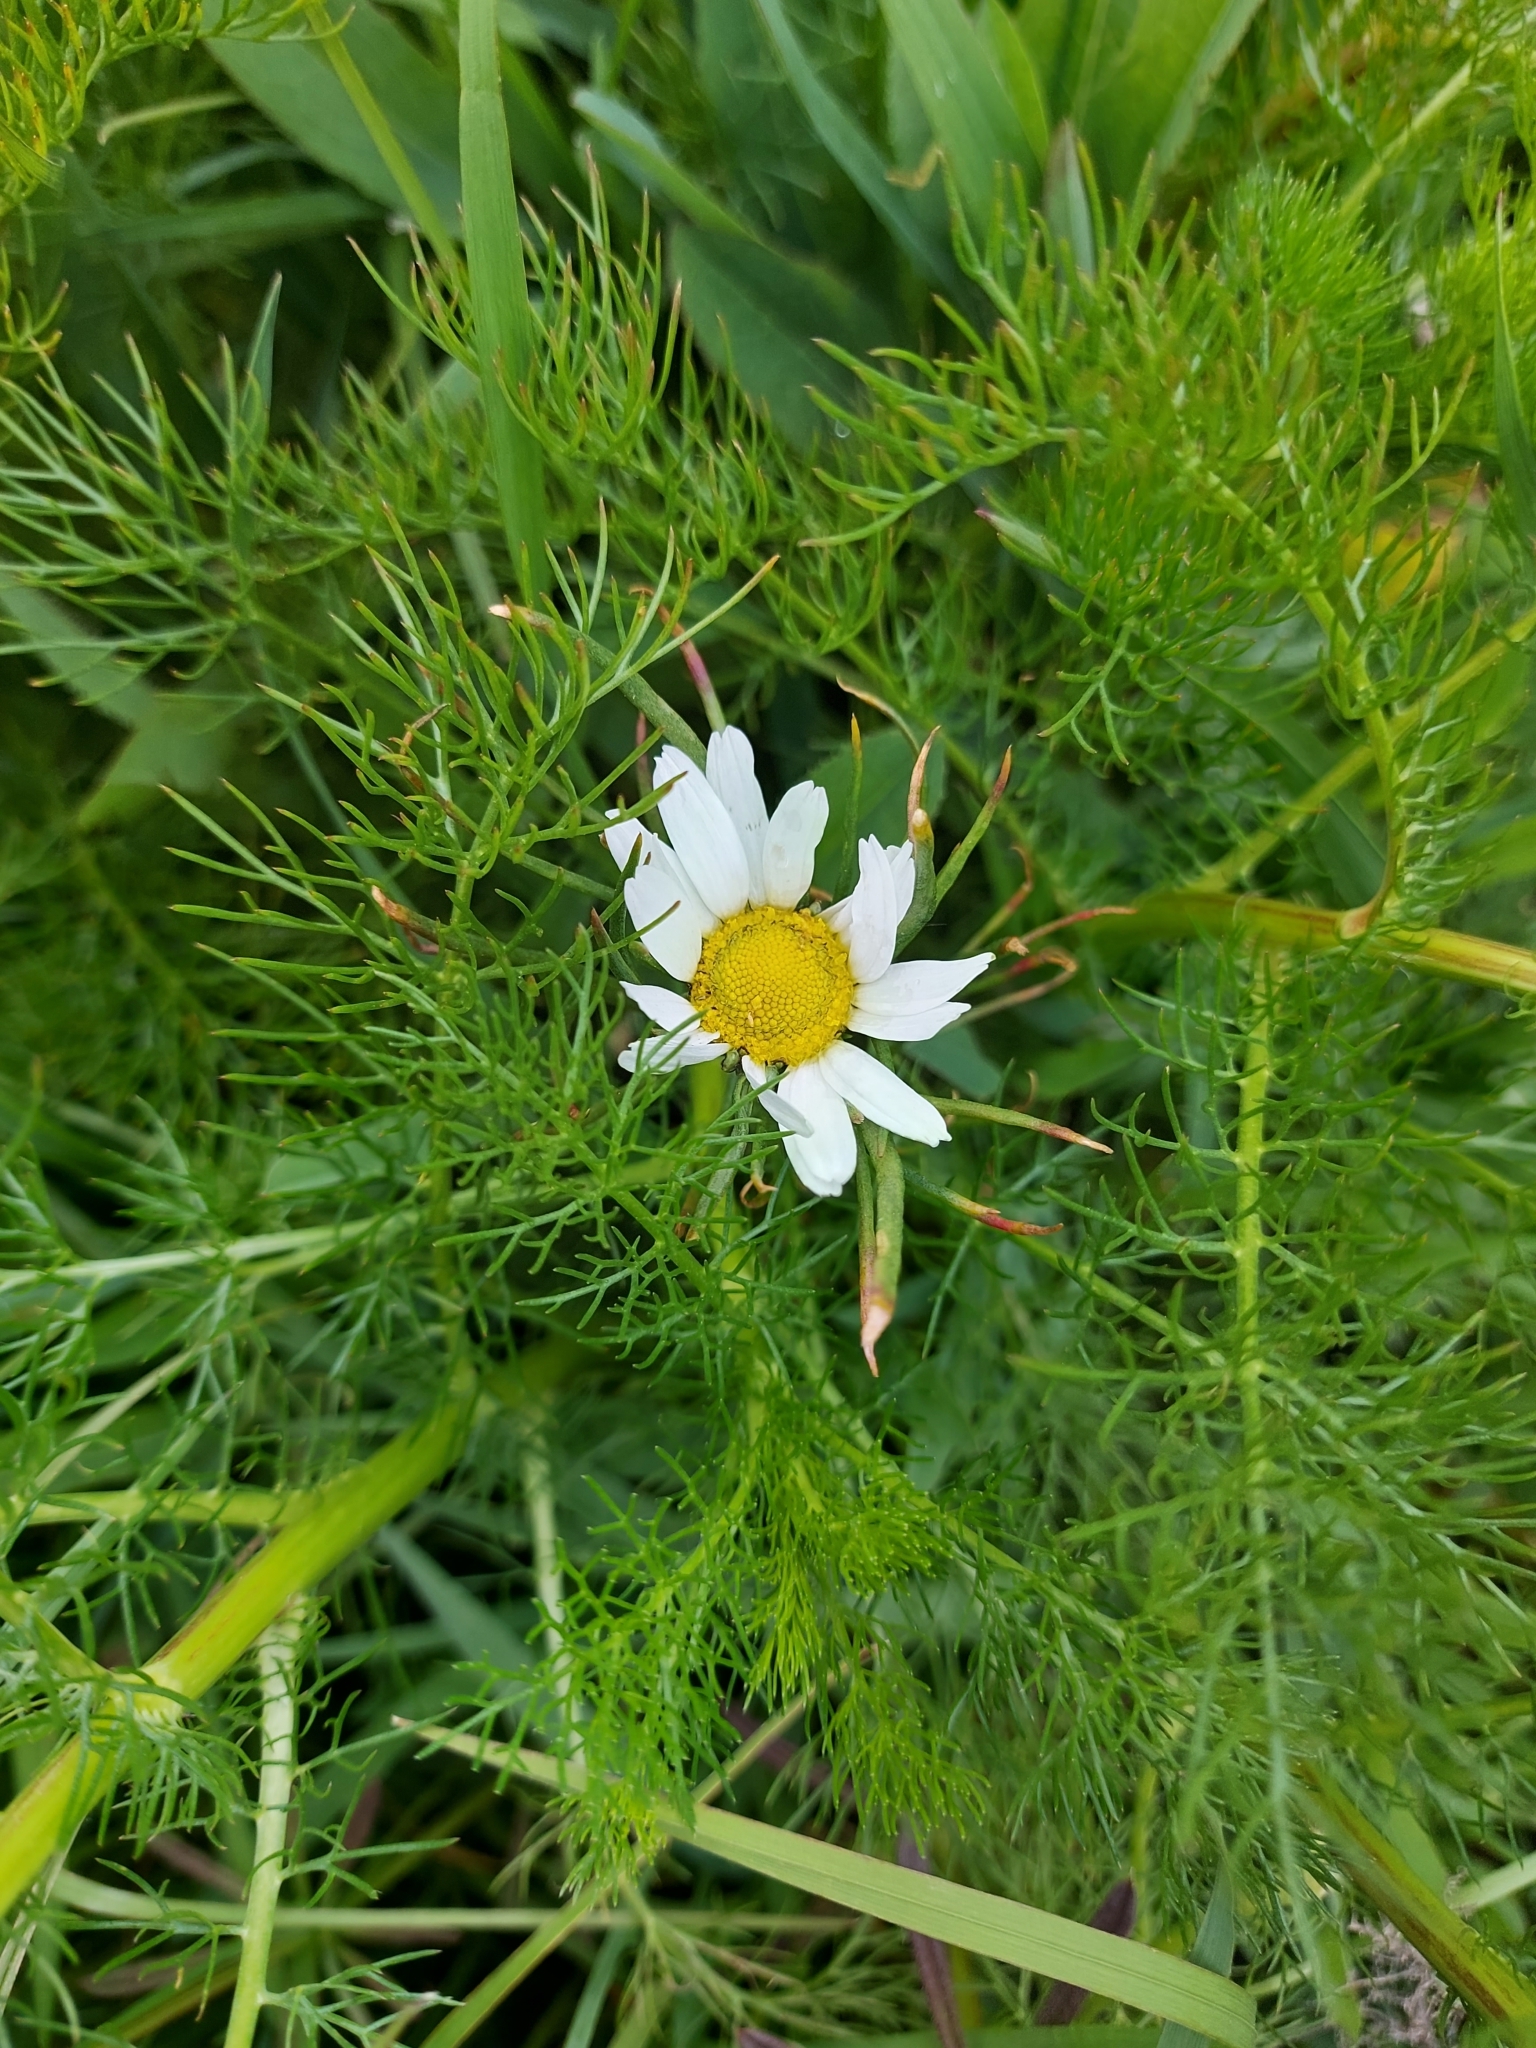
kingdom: Plantae
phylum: Tracheophyta
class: Magnoliopsida
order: Asterales
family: Asteraceae
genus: Tripleurospermum
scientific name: Tripleurospermum inodorum
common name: Scentless mayweed
